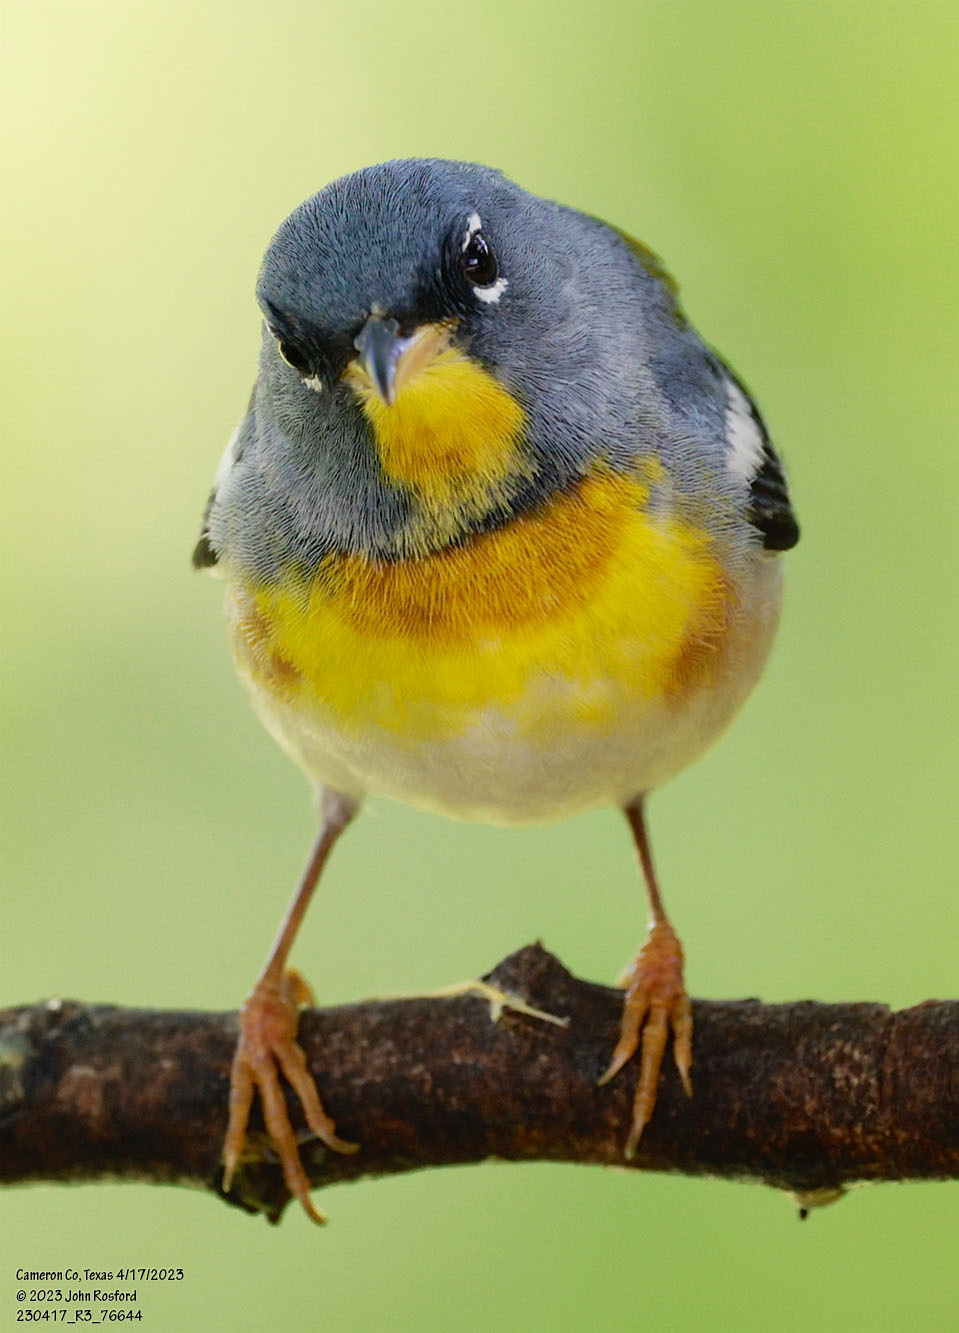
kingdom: Animalia
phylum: Chordata
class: Aves
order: Passeriformes
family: Parulidae
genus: Setophaga
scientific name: Setophaga americana
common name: Northern parula
